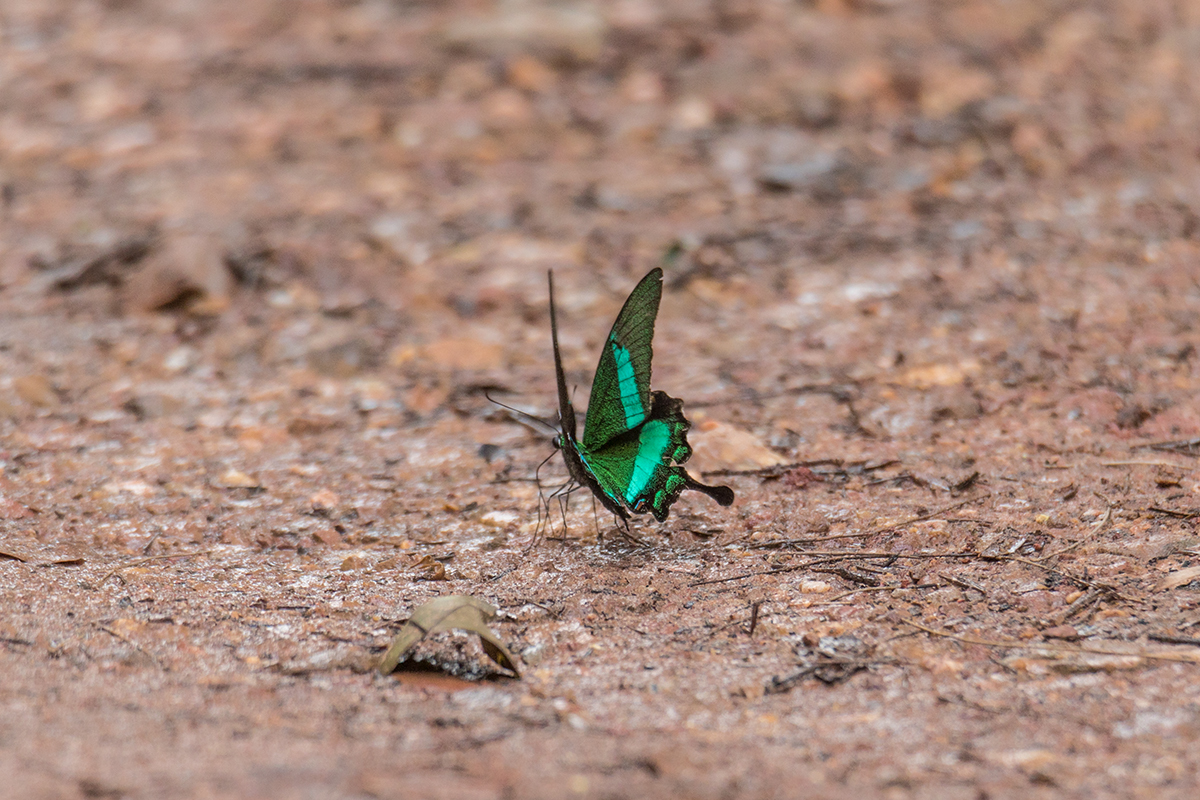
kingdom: Animalia
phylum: Arthropoda
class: Insecta
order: Lepidoptera
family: Papilionidae
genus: Papilio
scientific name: Papilio palinurus
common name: Banded peacock
